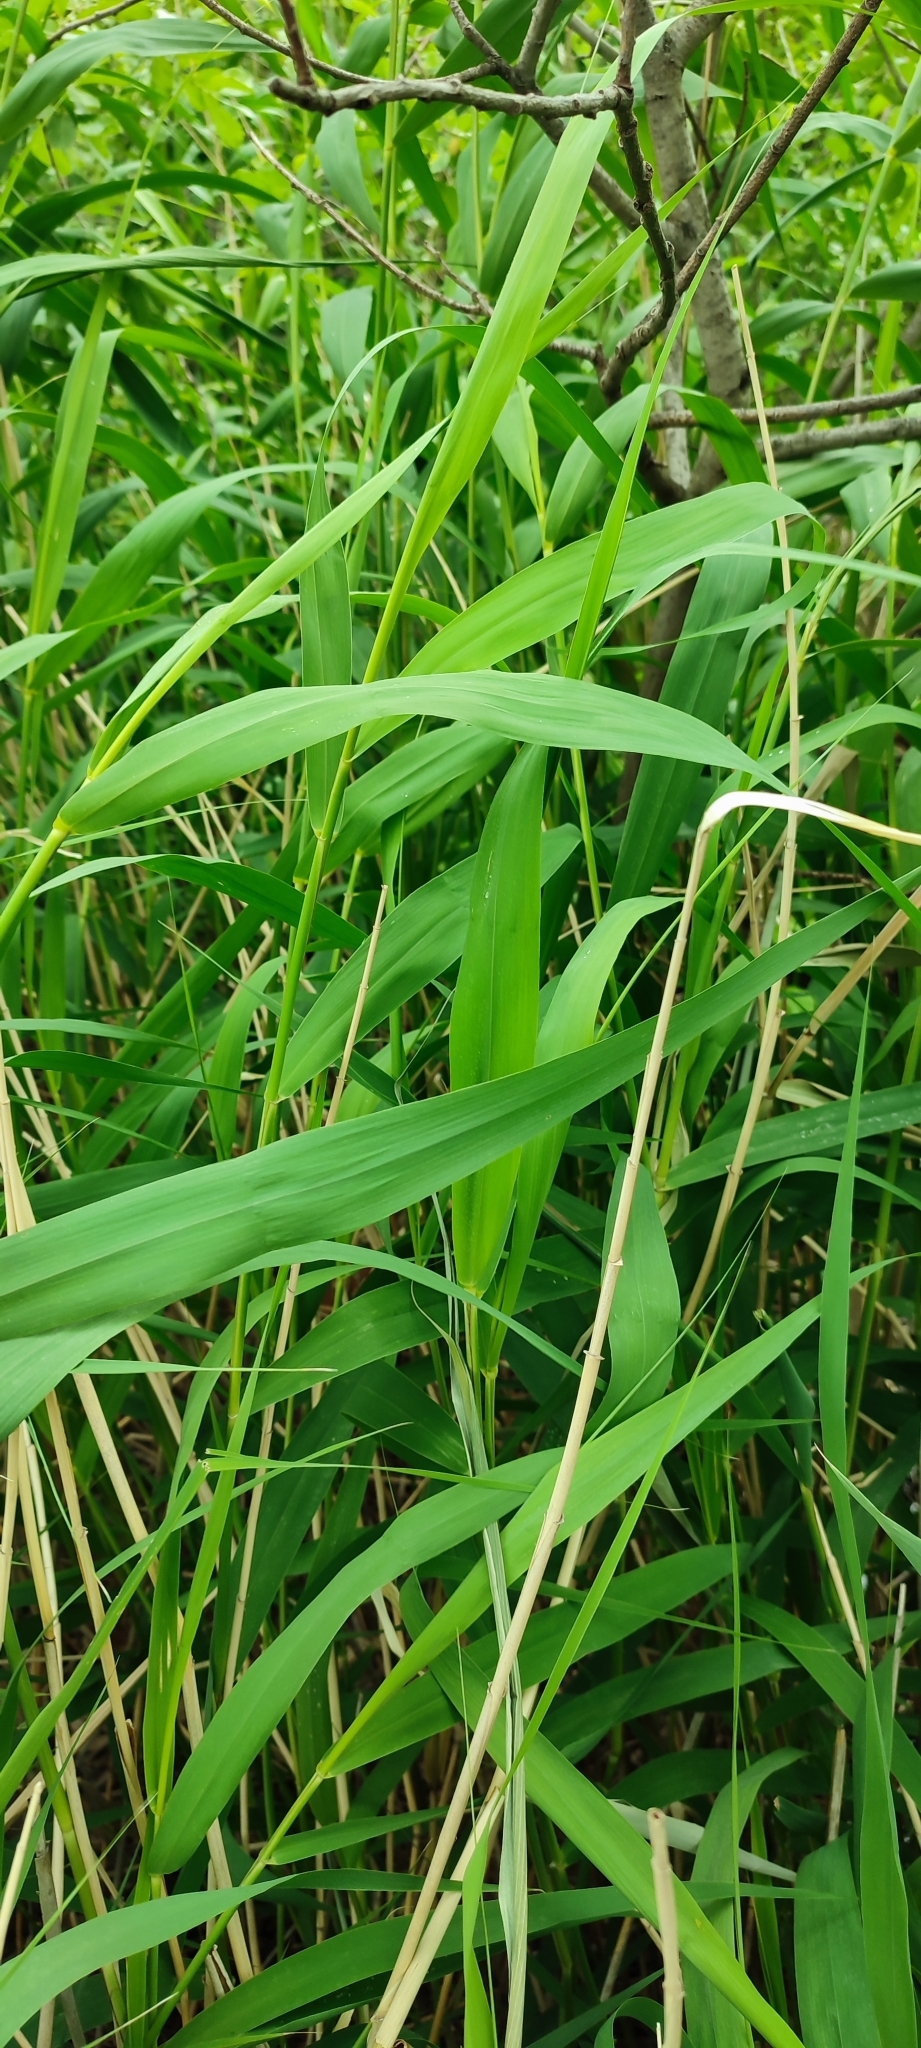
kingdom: Plantae
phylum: Tracheophyta
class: Liliopsida
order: Poales
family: Poaceae
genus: Phragmites
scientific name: Phragmites australis
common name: Common reed
